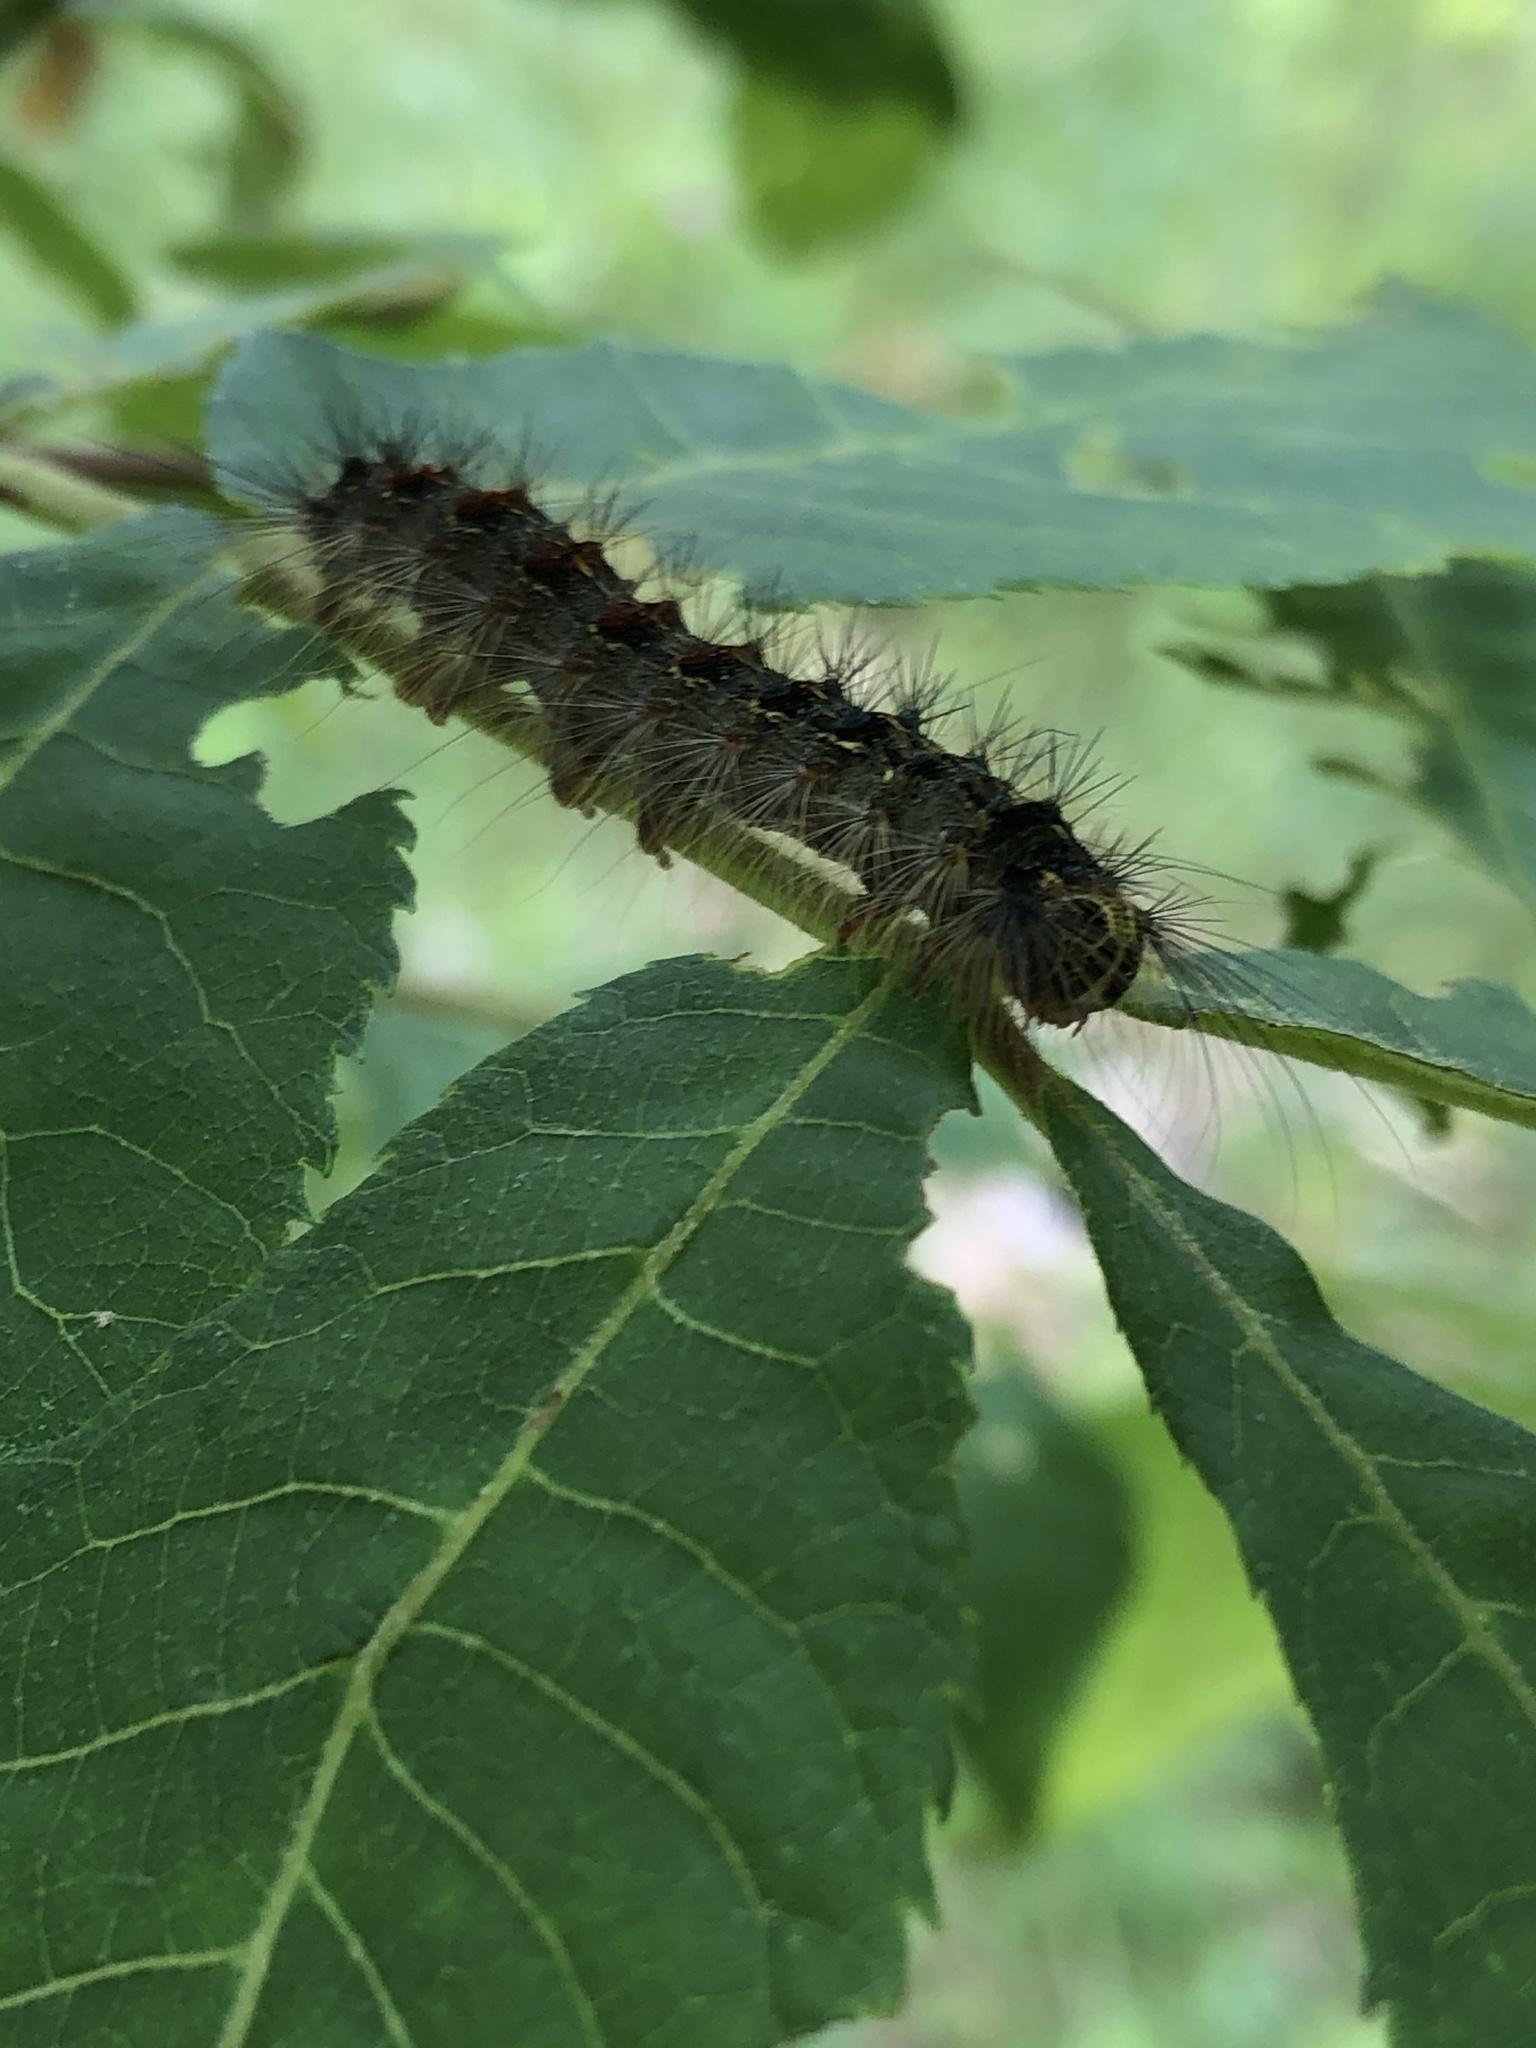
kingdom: Animalia
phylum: Arthropoda
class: Insecta
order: Lepidoptera
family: Erebidae
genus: Lymantria
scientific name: Lymantria dispar
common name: Gypsy moth
